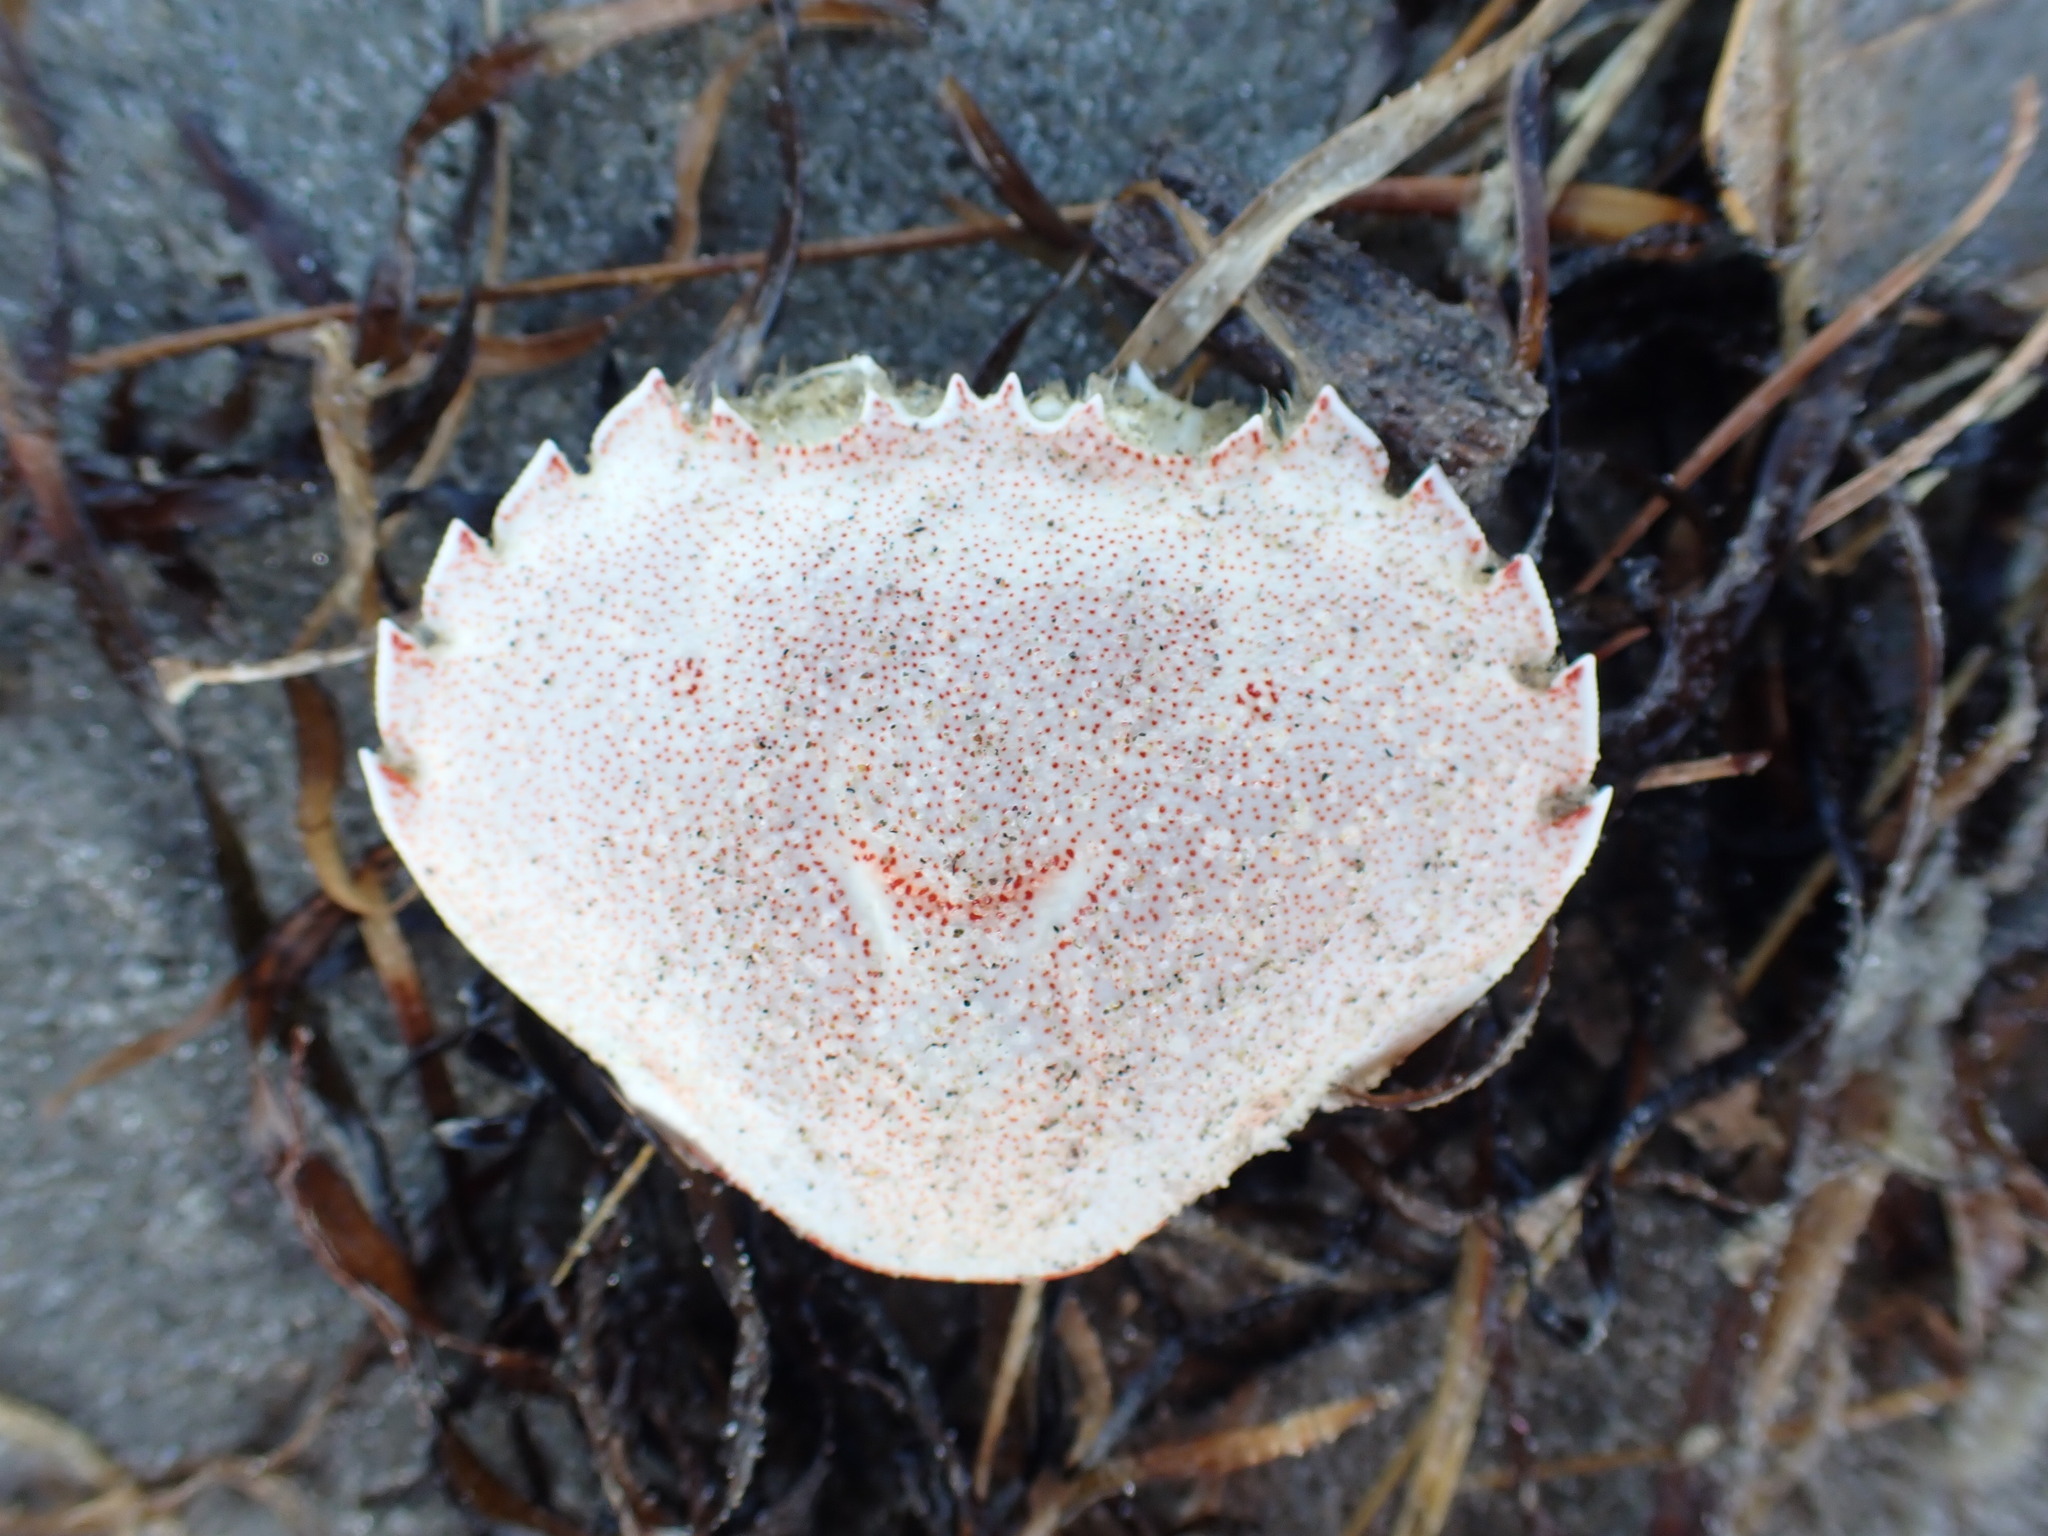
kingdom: Animalia
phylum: Arthropoda
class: Malacostraca
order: Decapoda
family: Ovalipidae
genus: Ovalipes
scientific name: Ovalipes catharus
